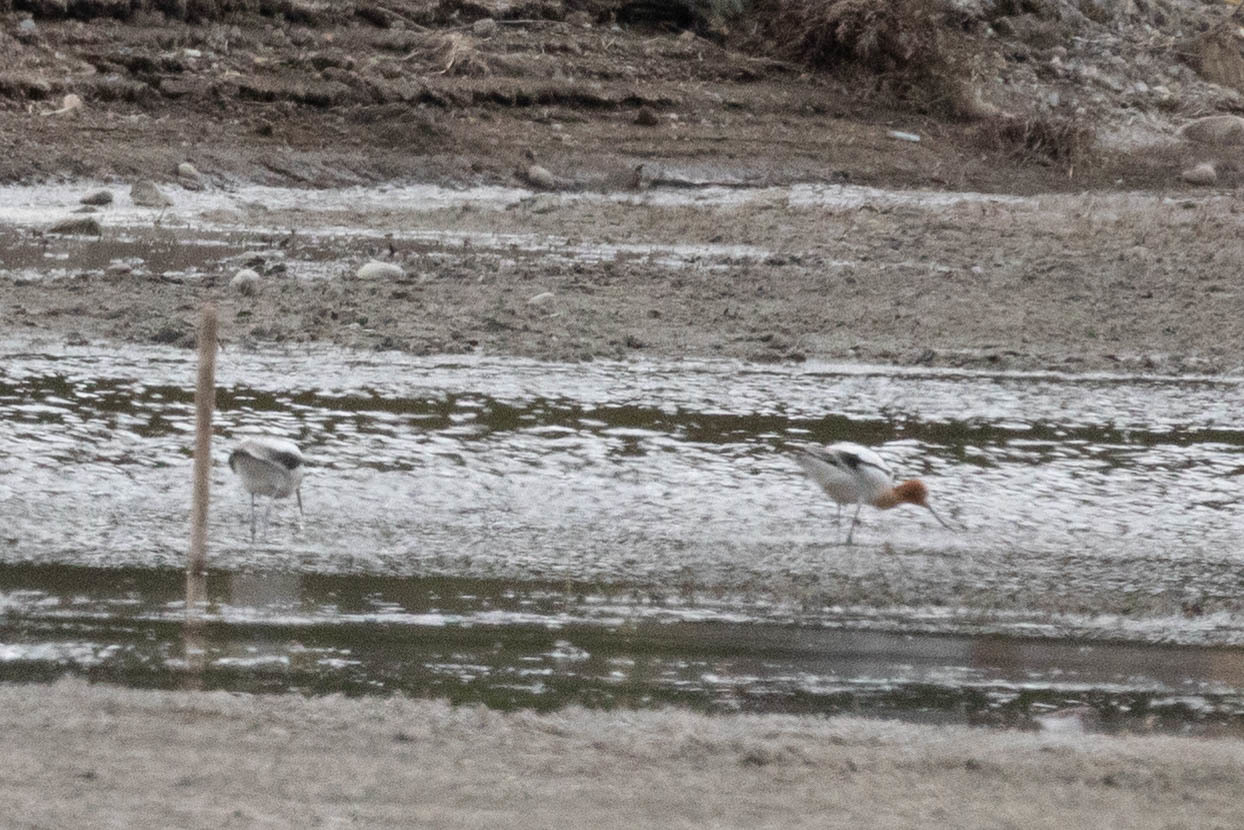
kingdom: Animalia
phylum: Chordata
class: Aves
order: Charadriiformes
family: Recurvirostridae
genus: Recurvirostra
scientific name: Recurvirostra americana
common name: American avocet
